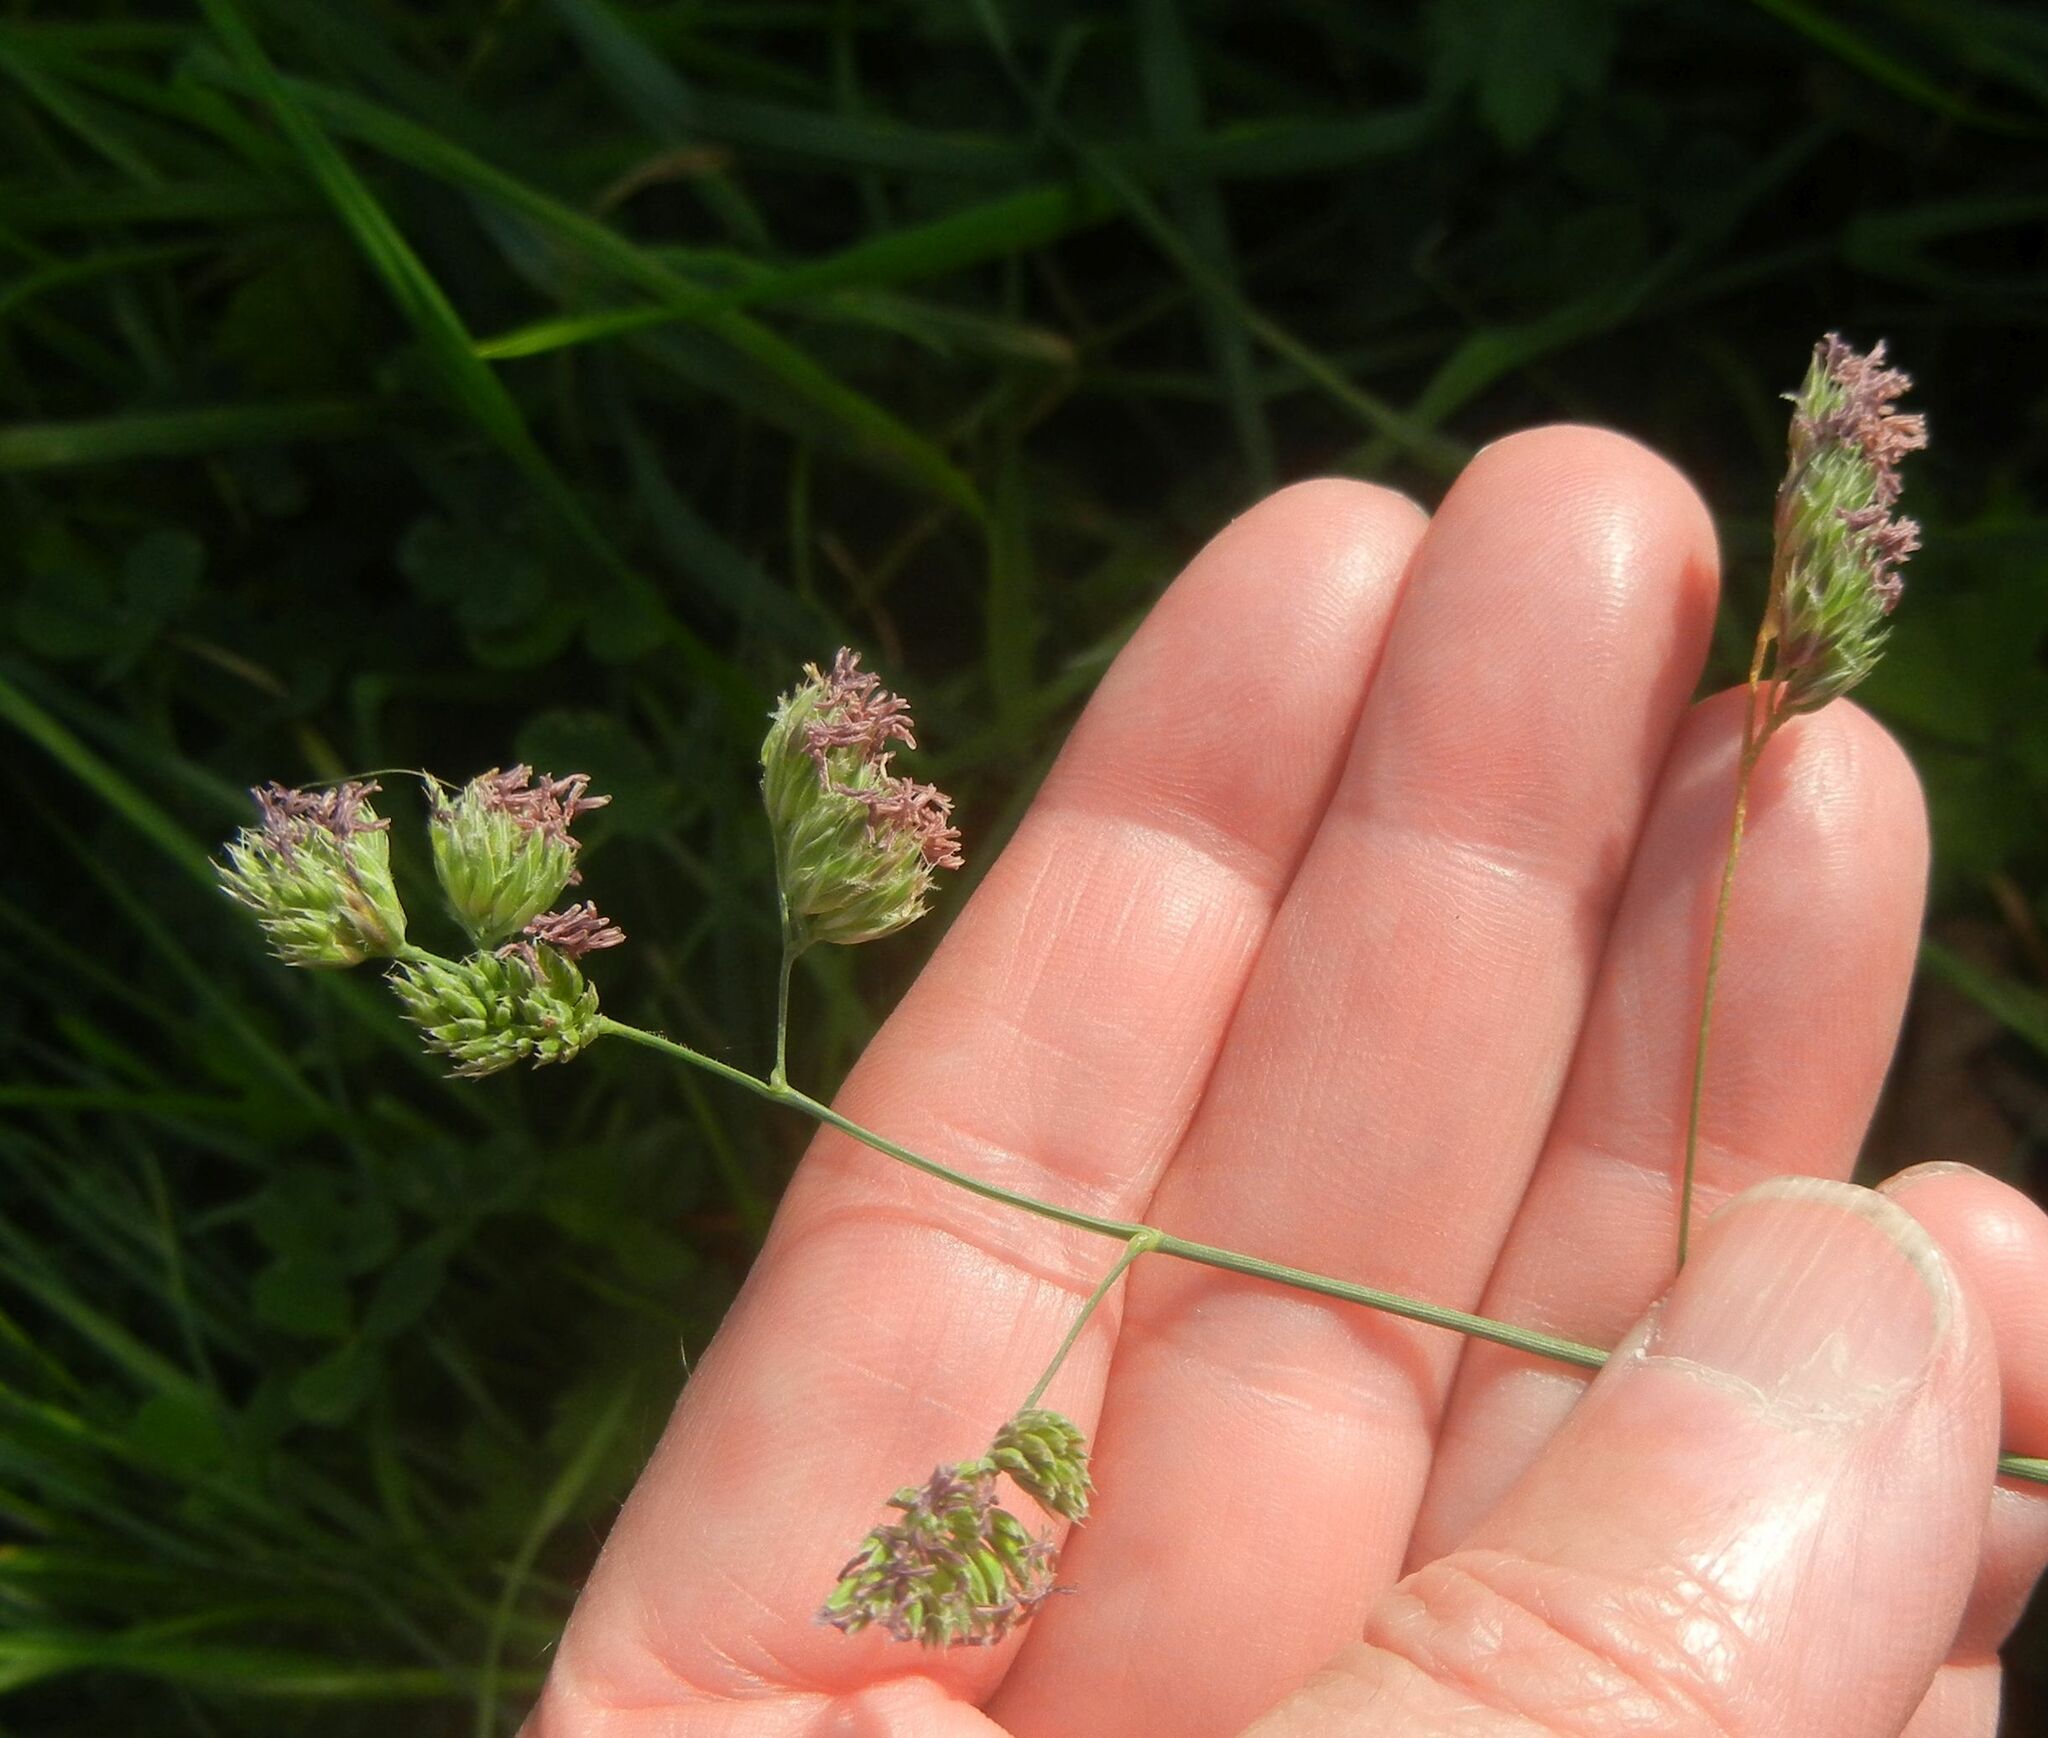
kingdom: Plantae
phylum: Tracheophyta
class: Liliopsida
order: Poales
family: Poaceae
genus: Dactylis
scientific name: Dactylis glomerata
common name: Orchardgrass
